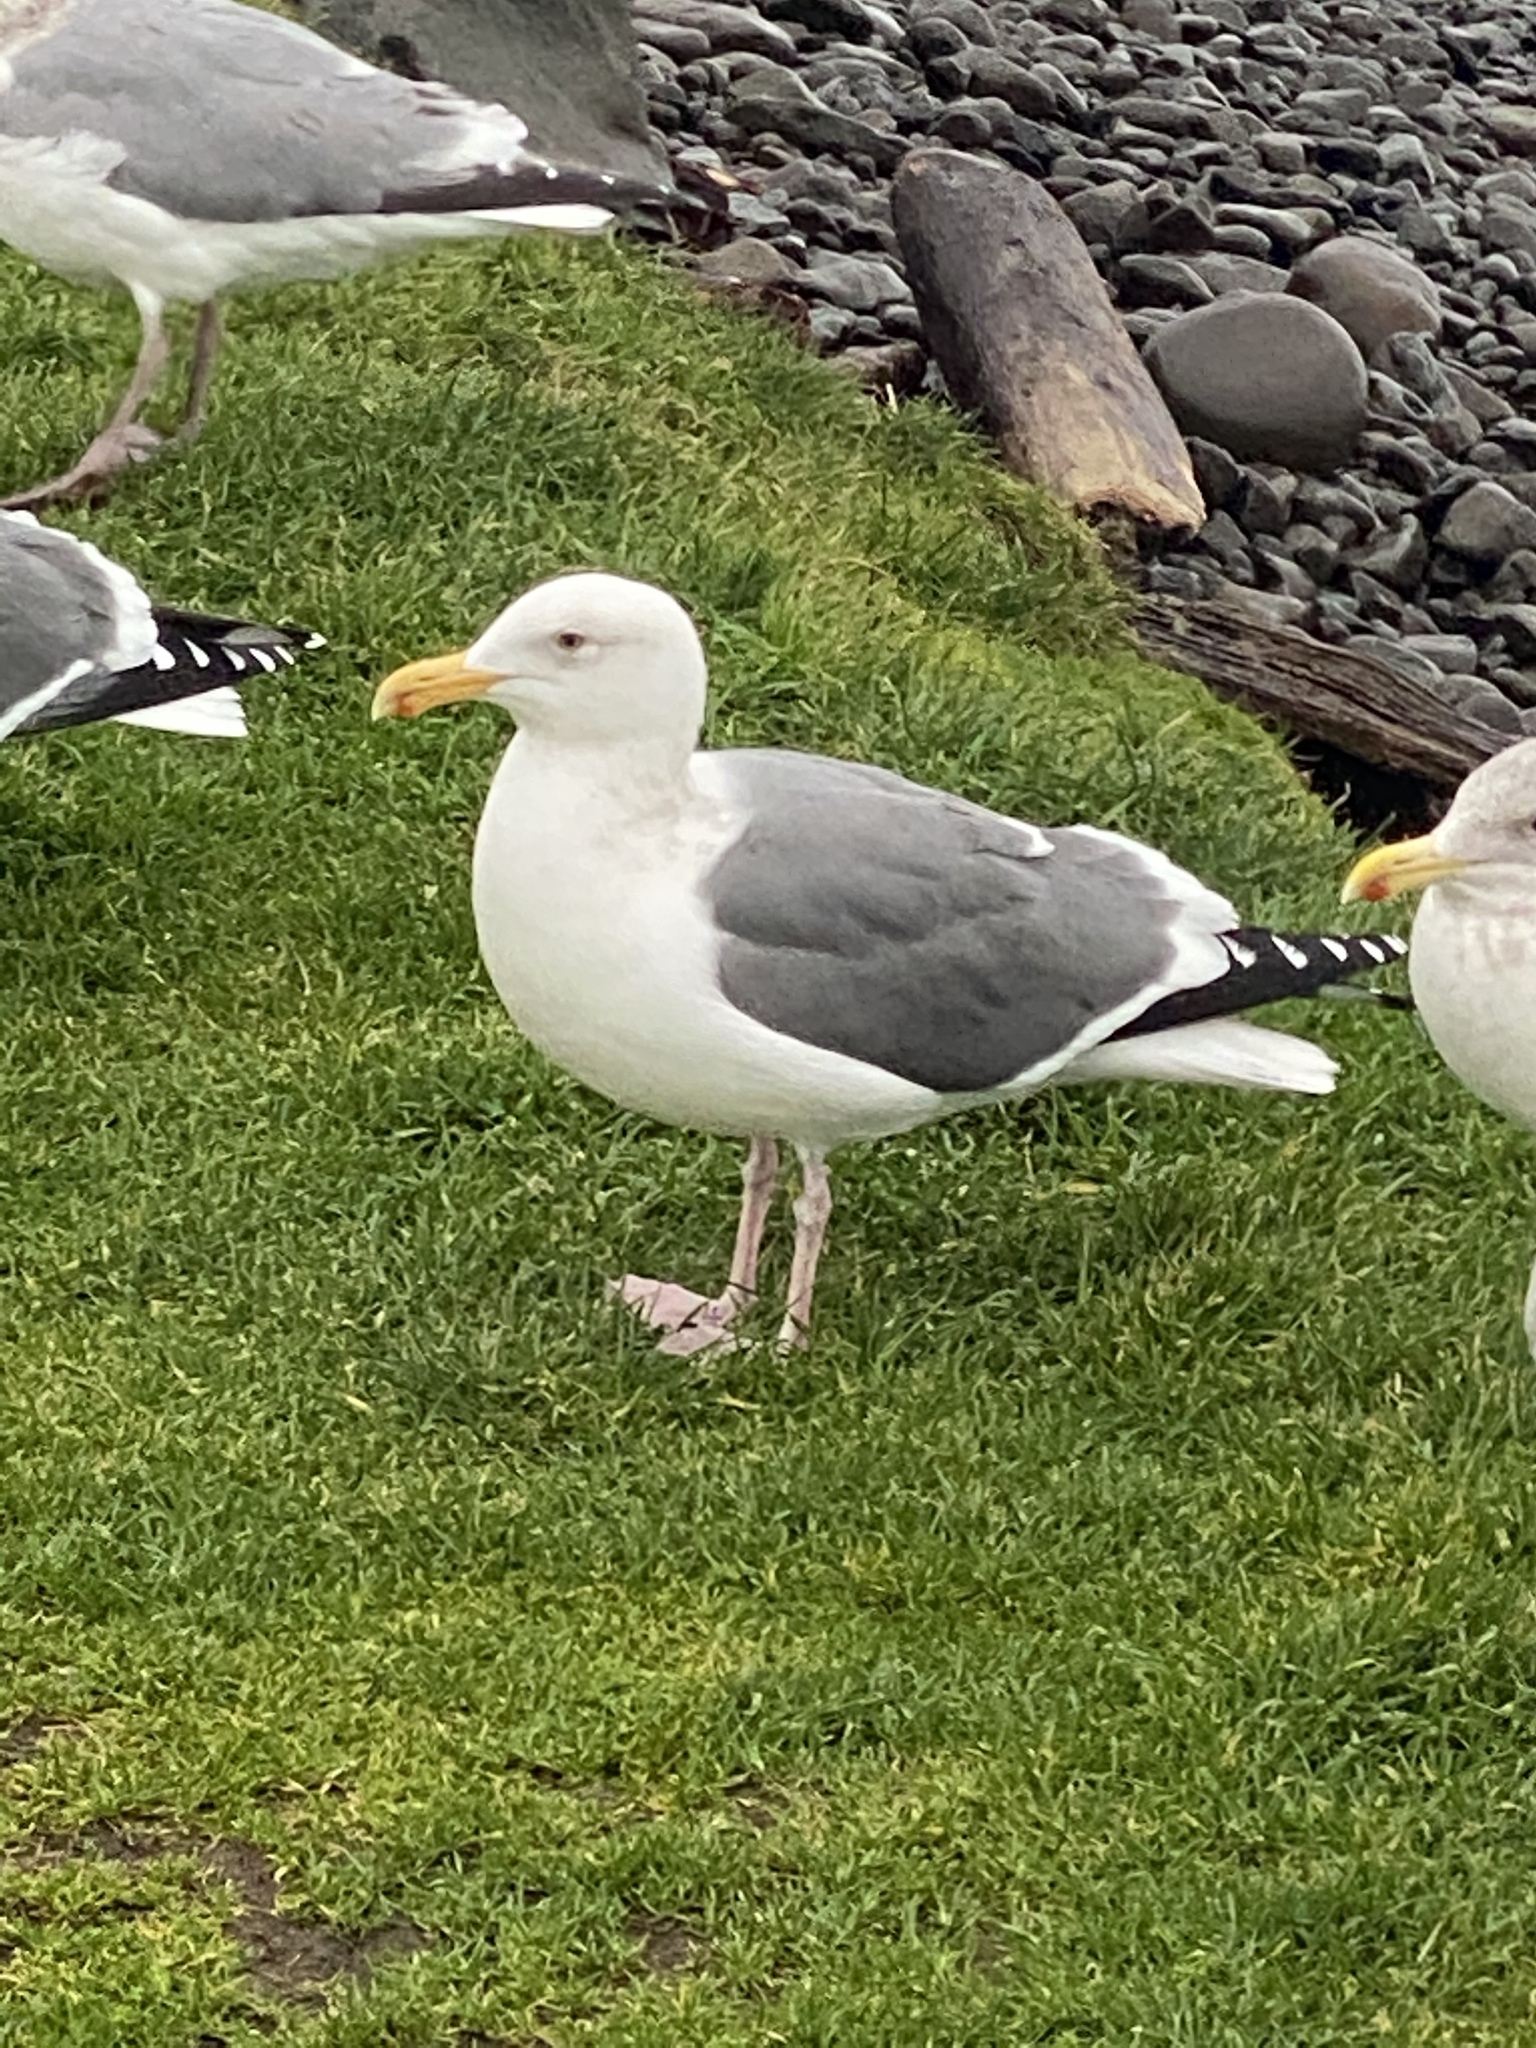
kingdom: Animalia
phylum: Chordata
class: Aves
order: Charadriiformes
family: Laridae
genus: Larus
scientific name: Larus occidentalis
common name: Western gull
